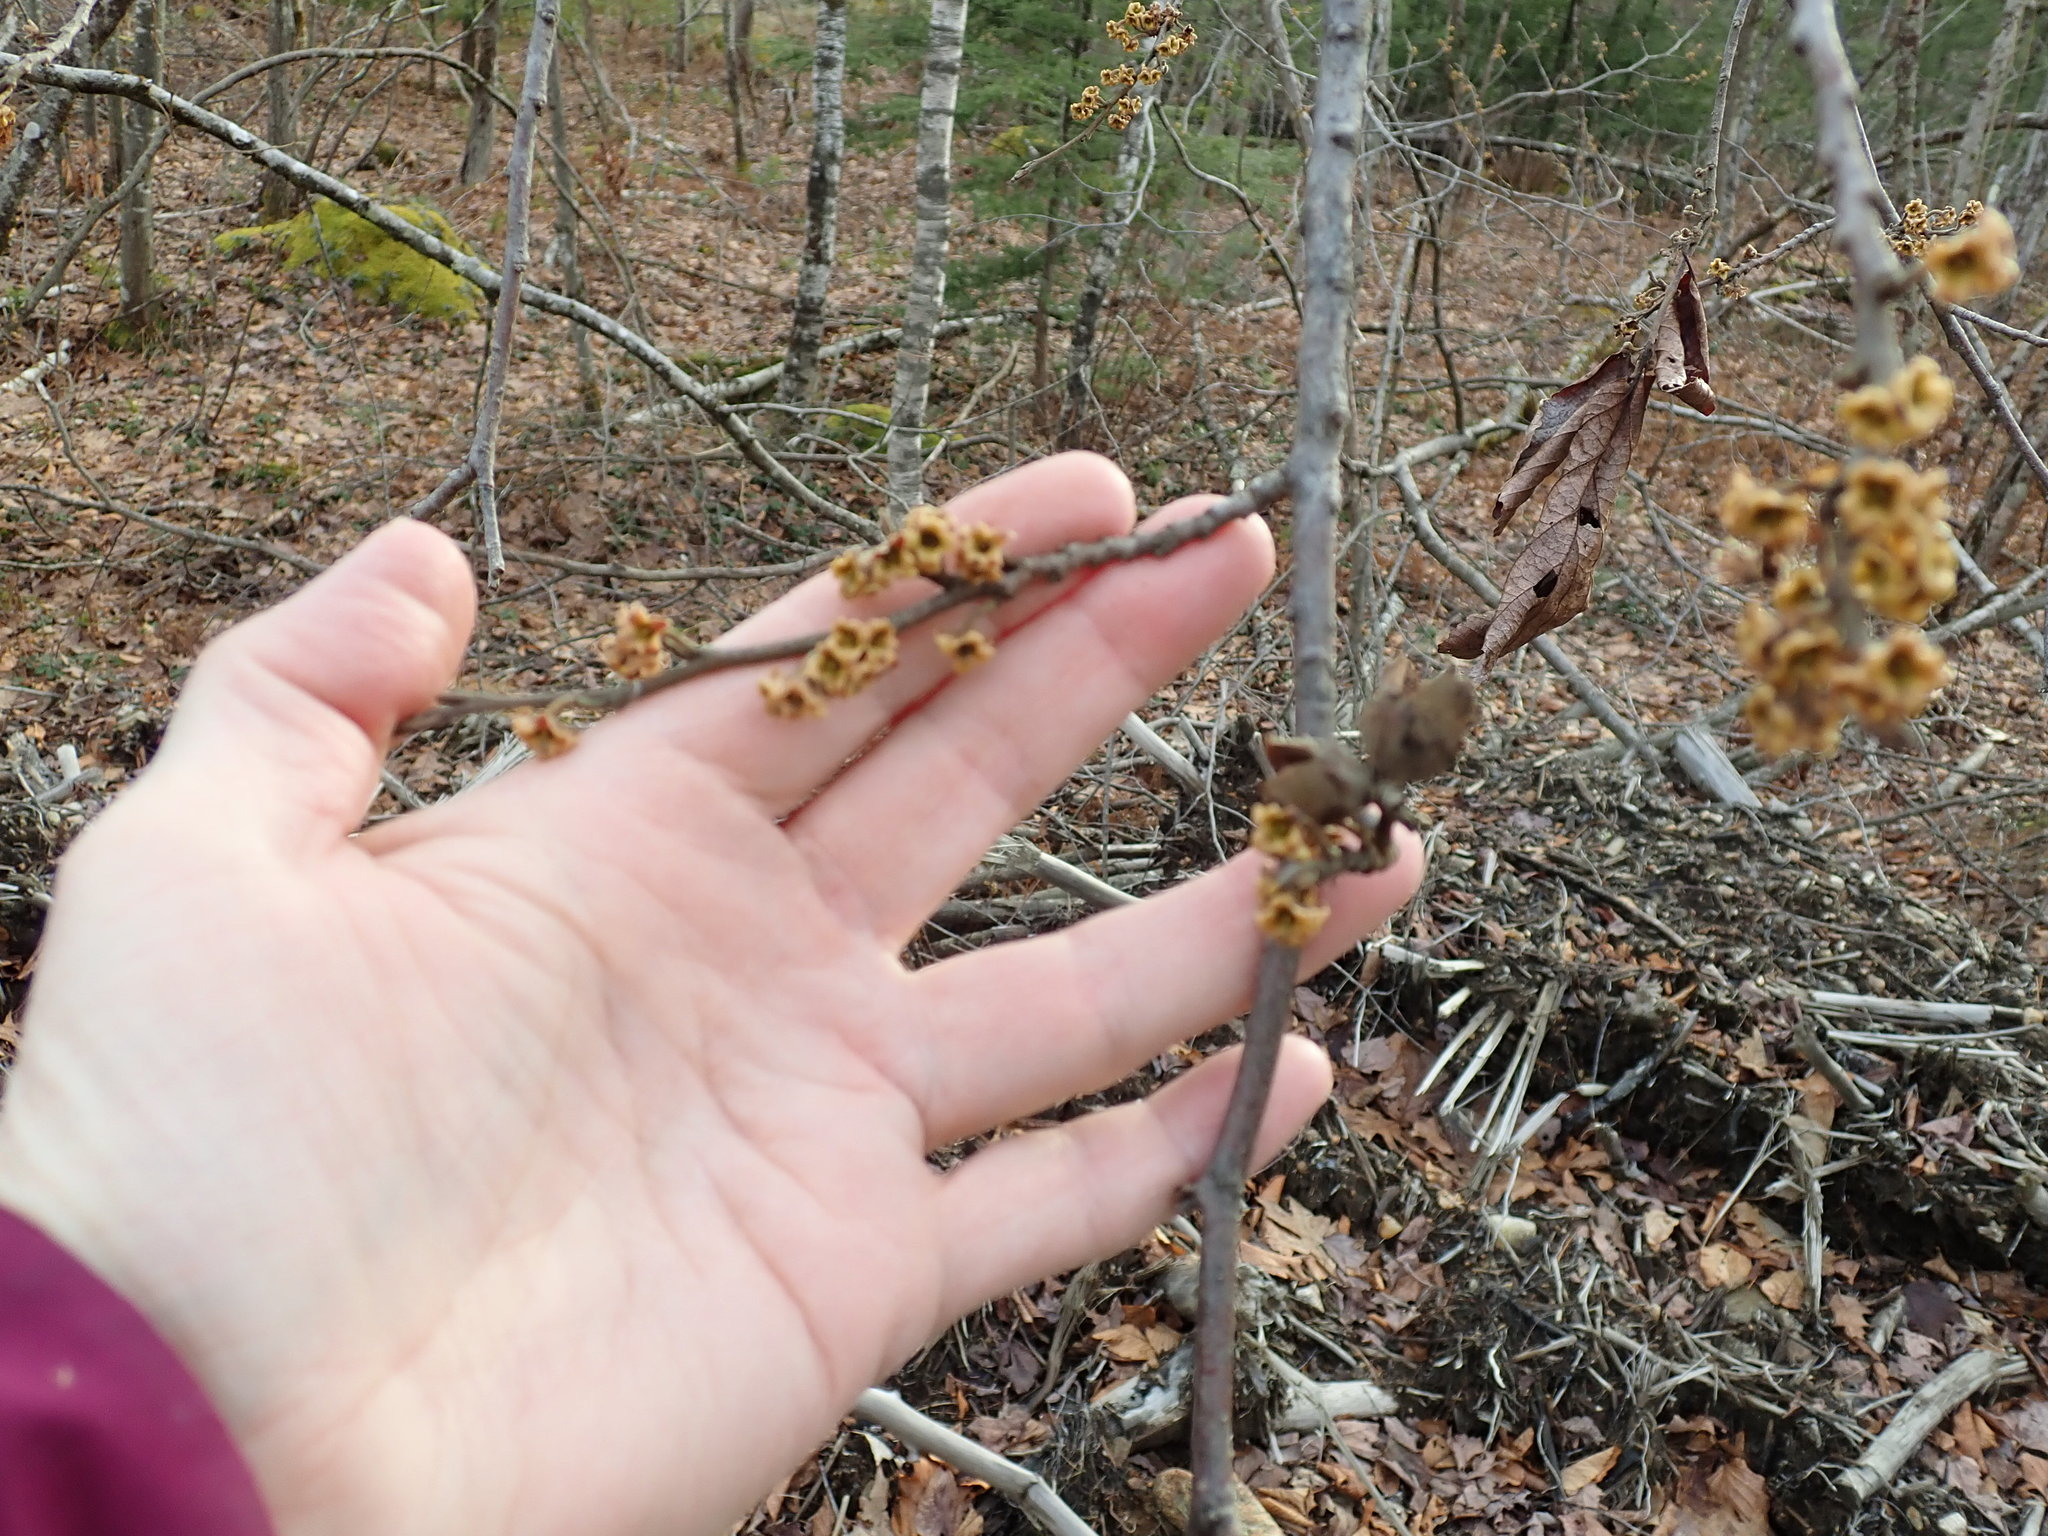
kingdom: Plantae
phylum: Tracheophyta
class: Magnoliopsida
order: Saxifragales
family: Hamamelidaceae
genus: Hamamelis
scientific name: Hamamelis virginiana
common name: Witch-hazel
